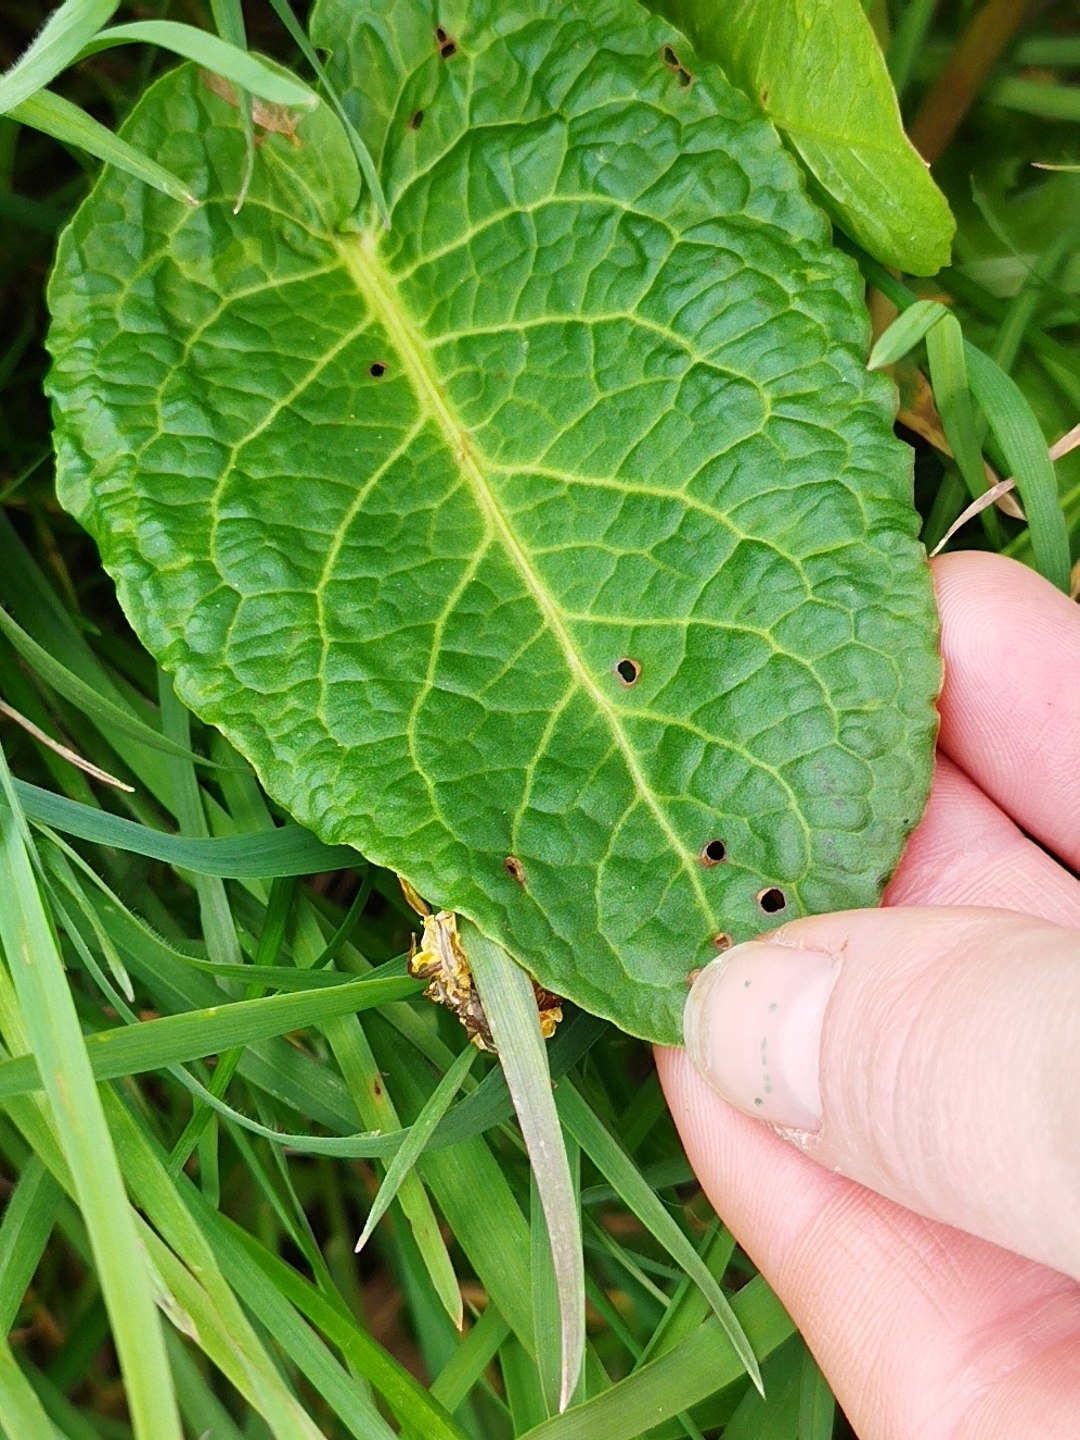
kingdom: Plantae
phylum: Tracheophyta
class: Magnoliopsida
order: Caryophyllales
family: Polygonaceae
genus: Rumex
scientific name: Rumex obtusifolius
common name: Bitter dock
